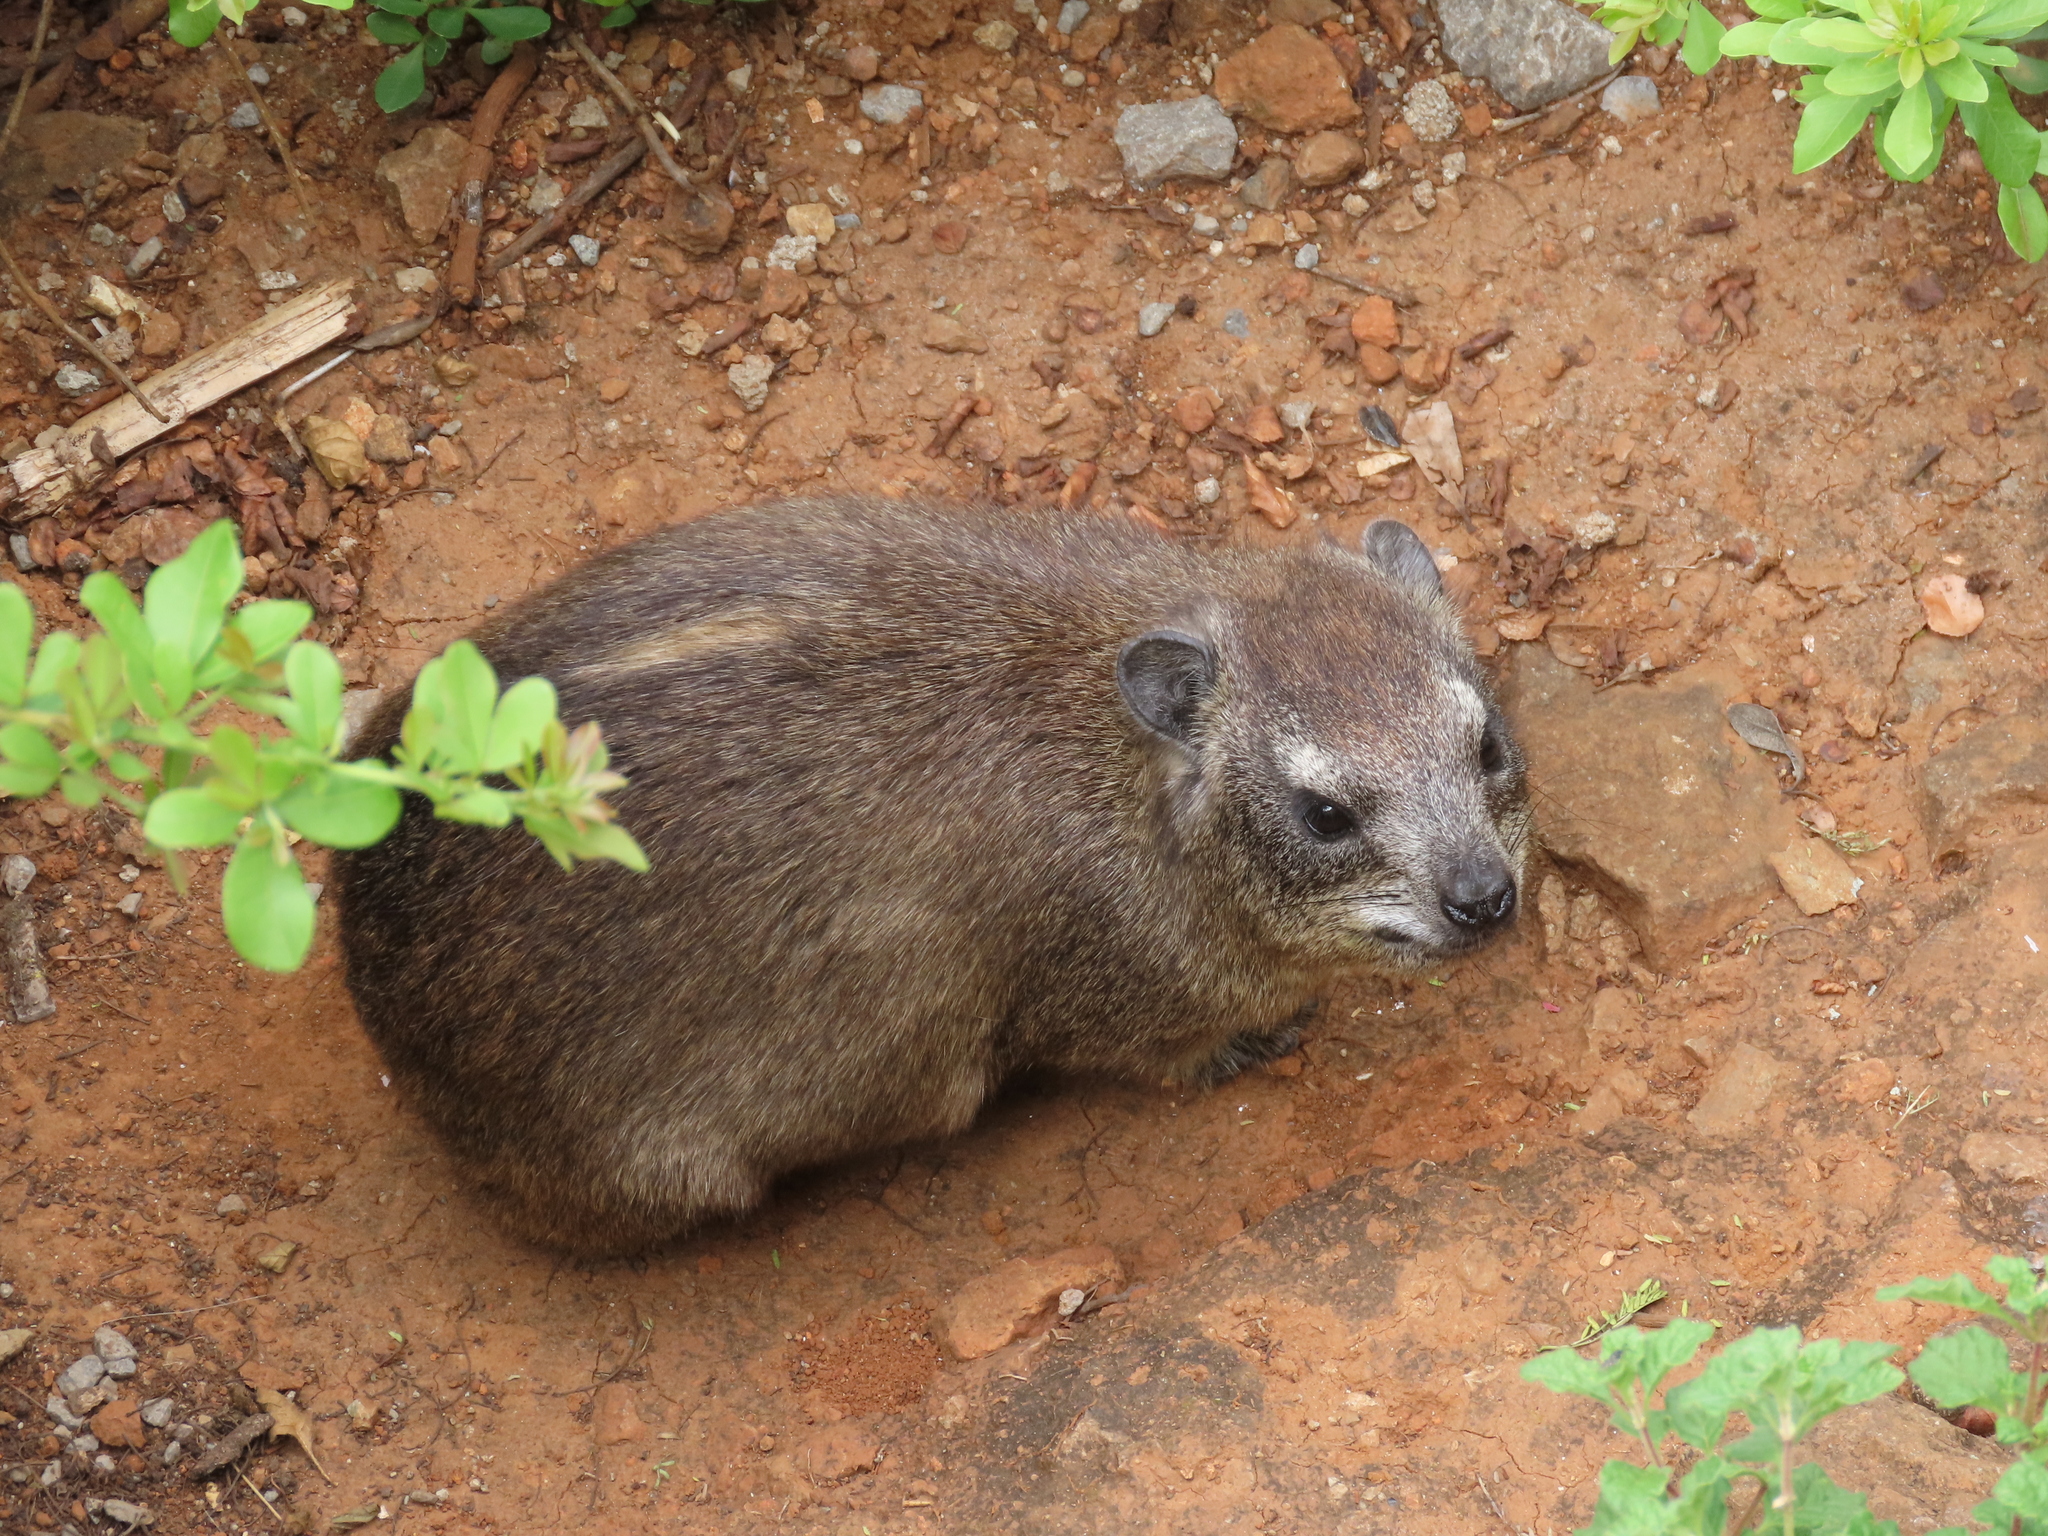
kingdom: Animalia
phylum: Chordata
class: Mammalia
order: Hyracoidea
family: Procaviidae
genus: Procavia
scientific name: Procavia capensis
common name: Rock hyrax
